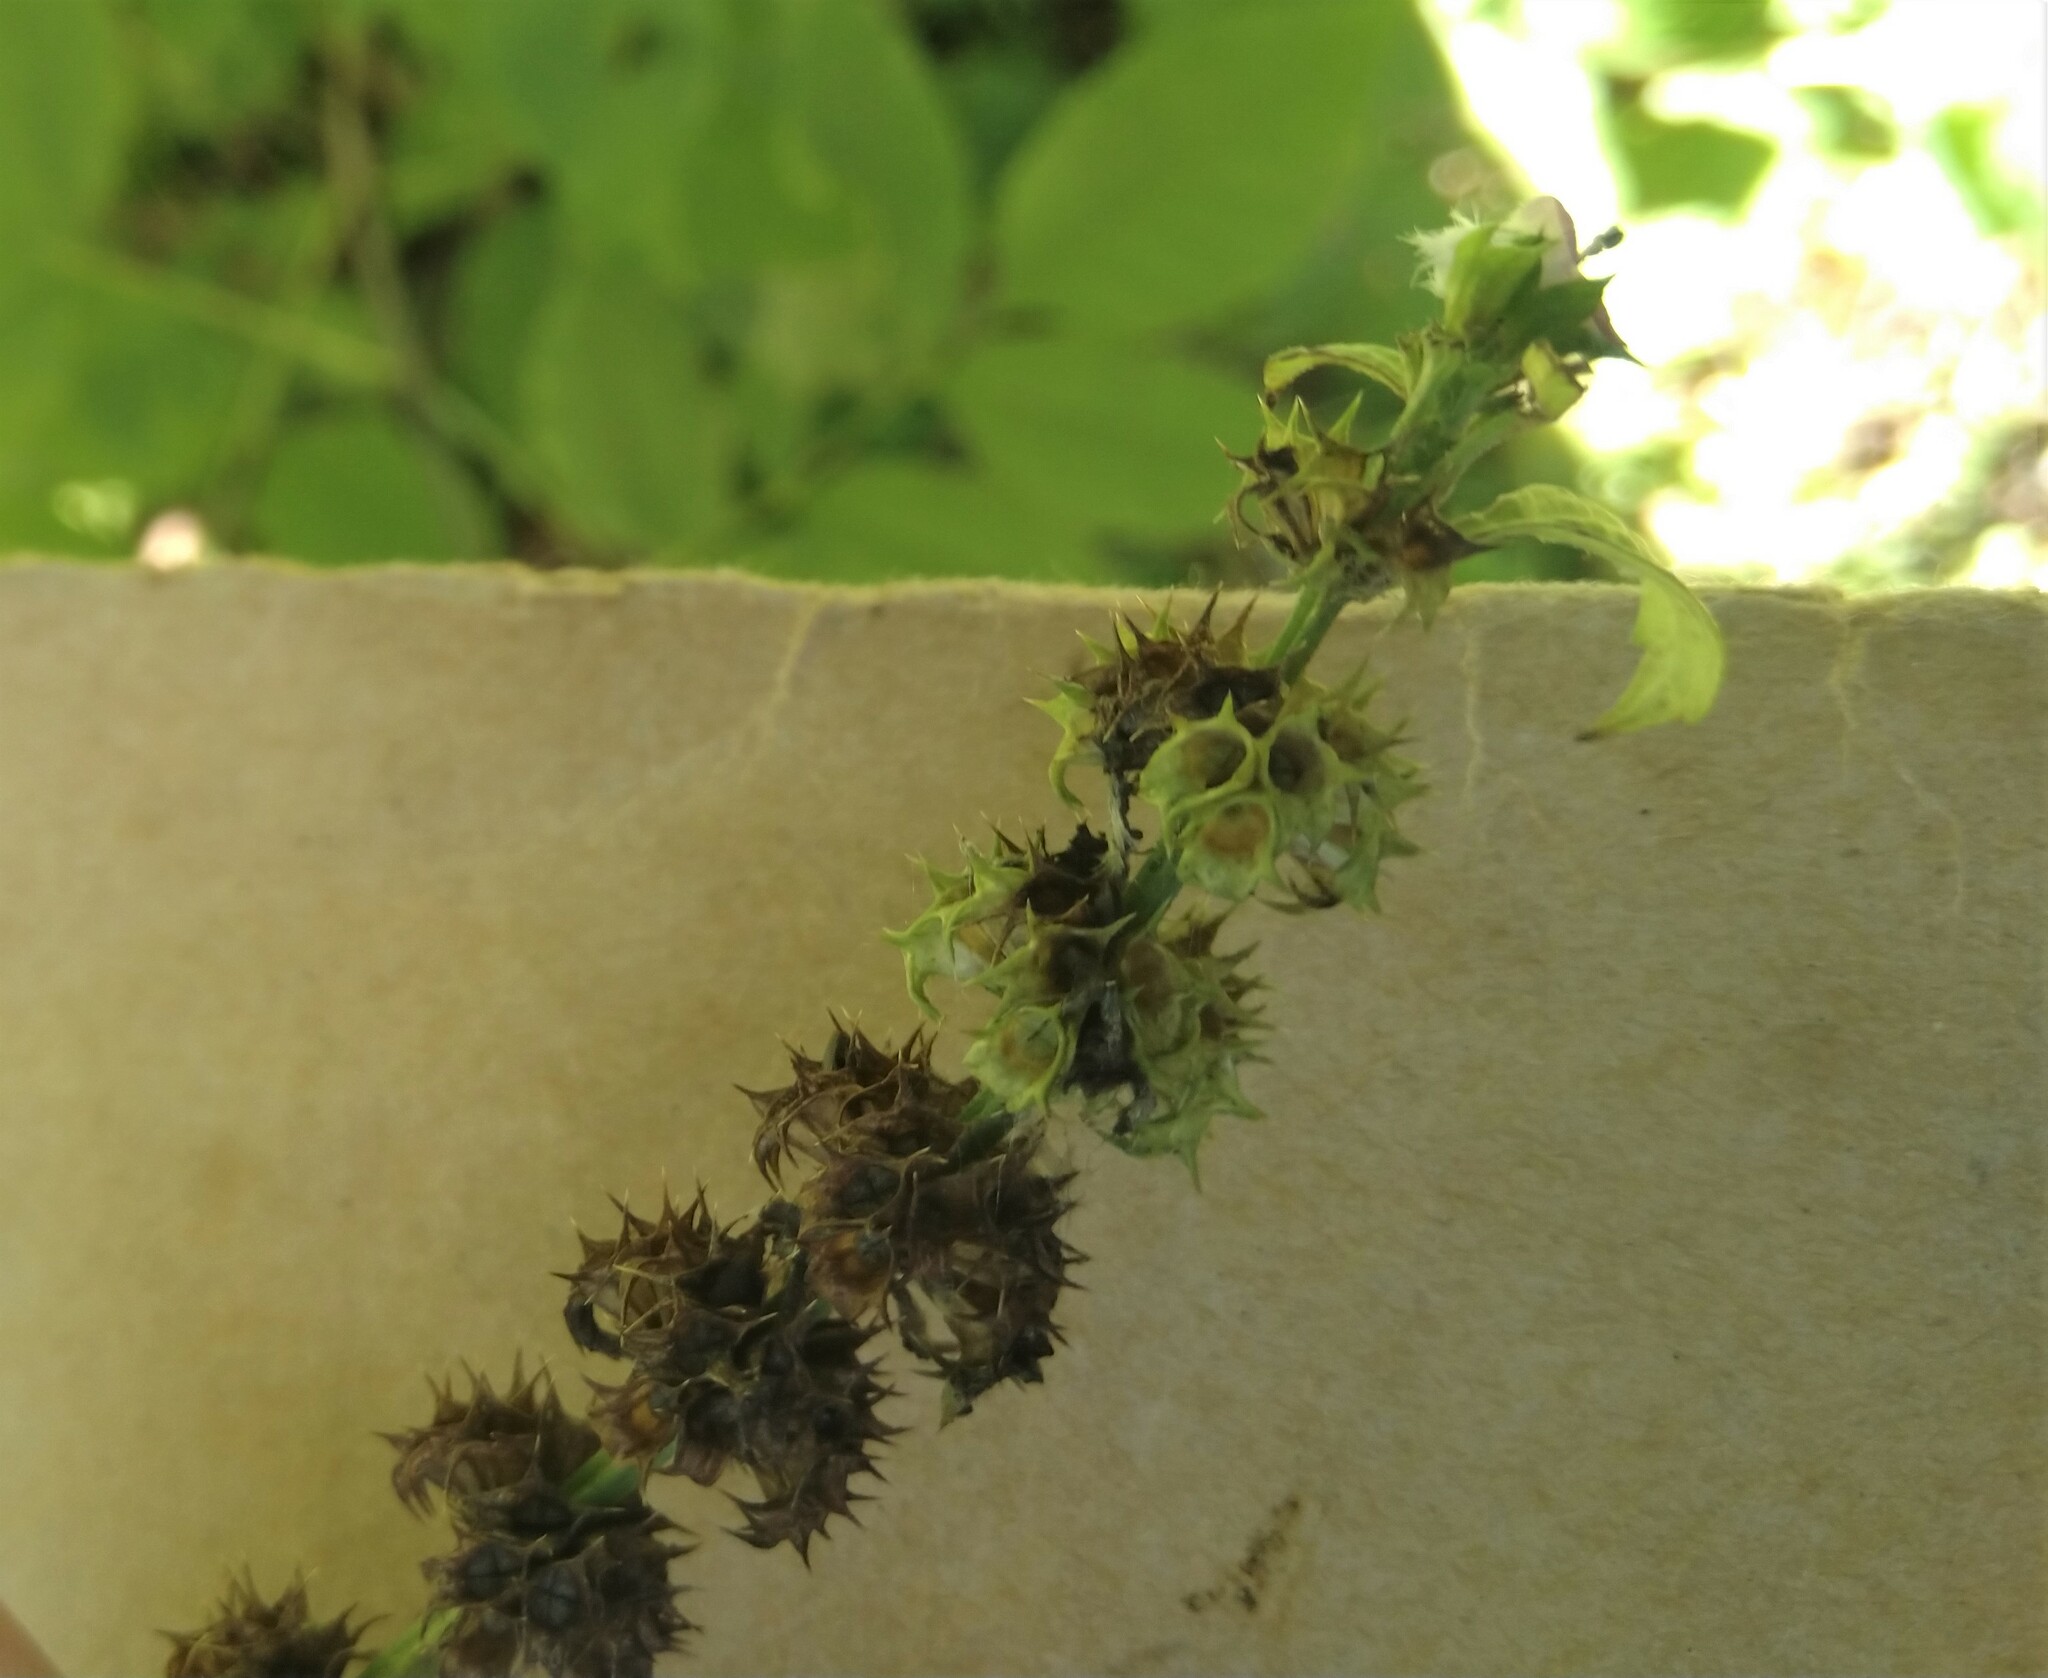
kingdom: Plantae
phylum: Tracheophyta
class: Magnoliopsida
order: Lamiales
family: Lamiaceae
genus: Leonurus
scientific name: Leonurus cardiaca
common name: Motherwort
